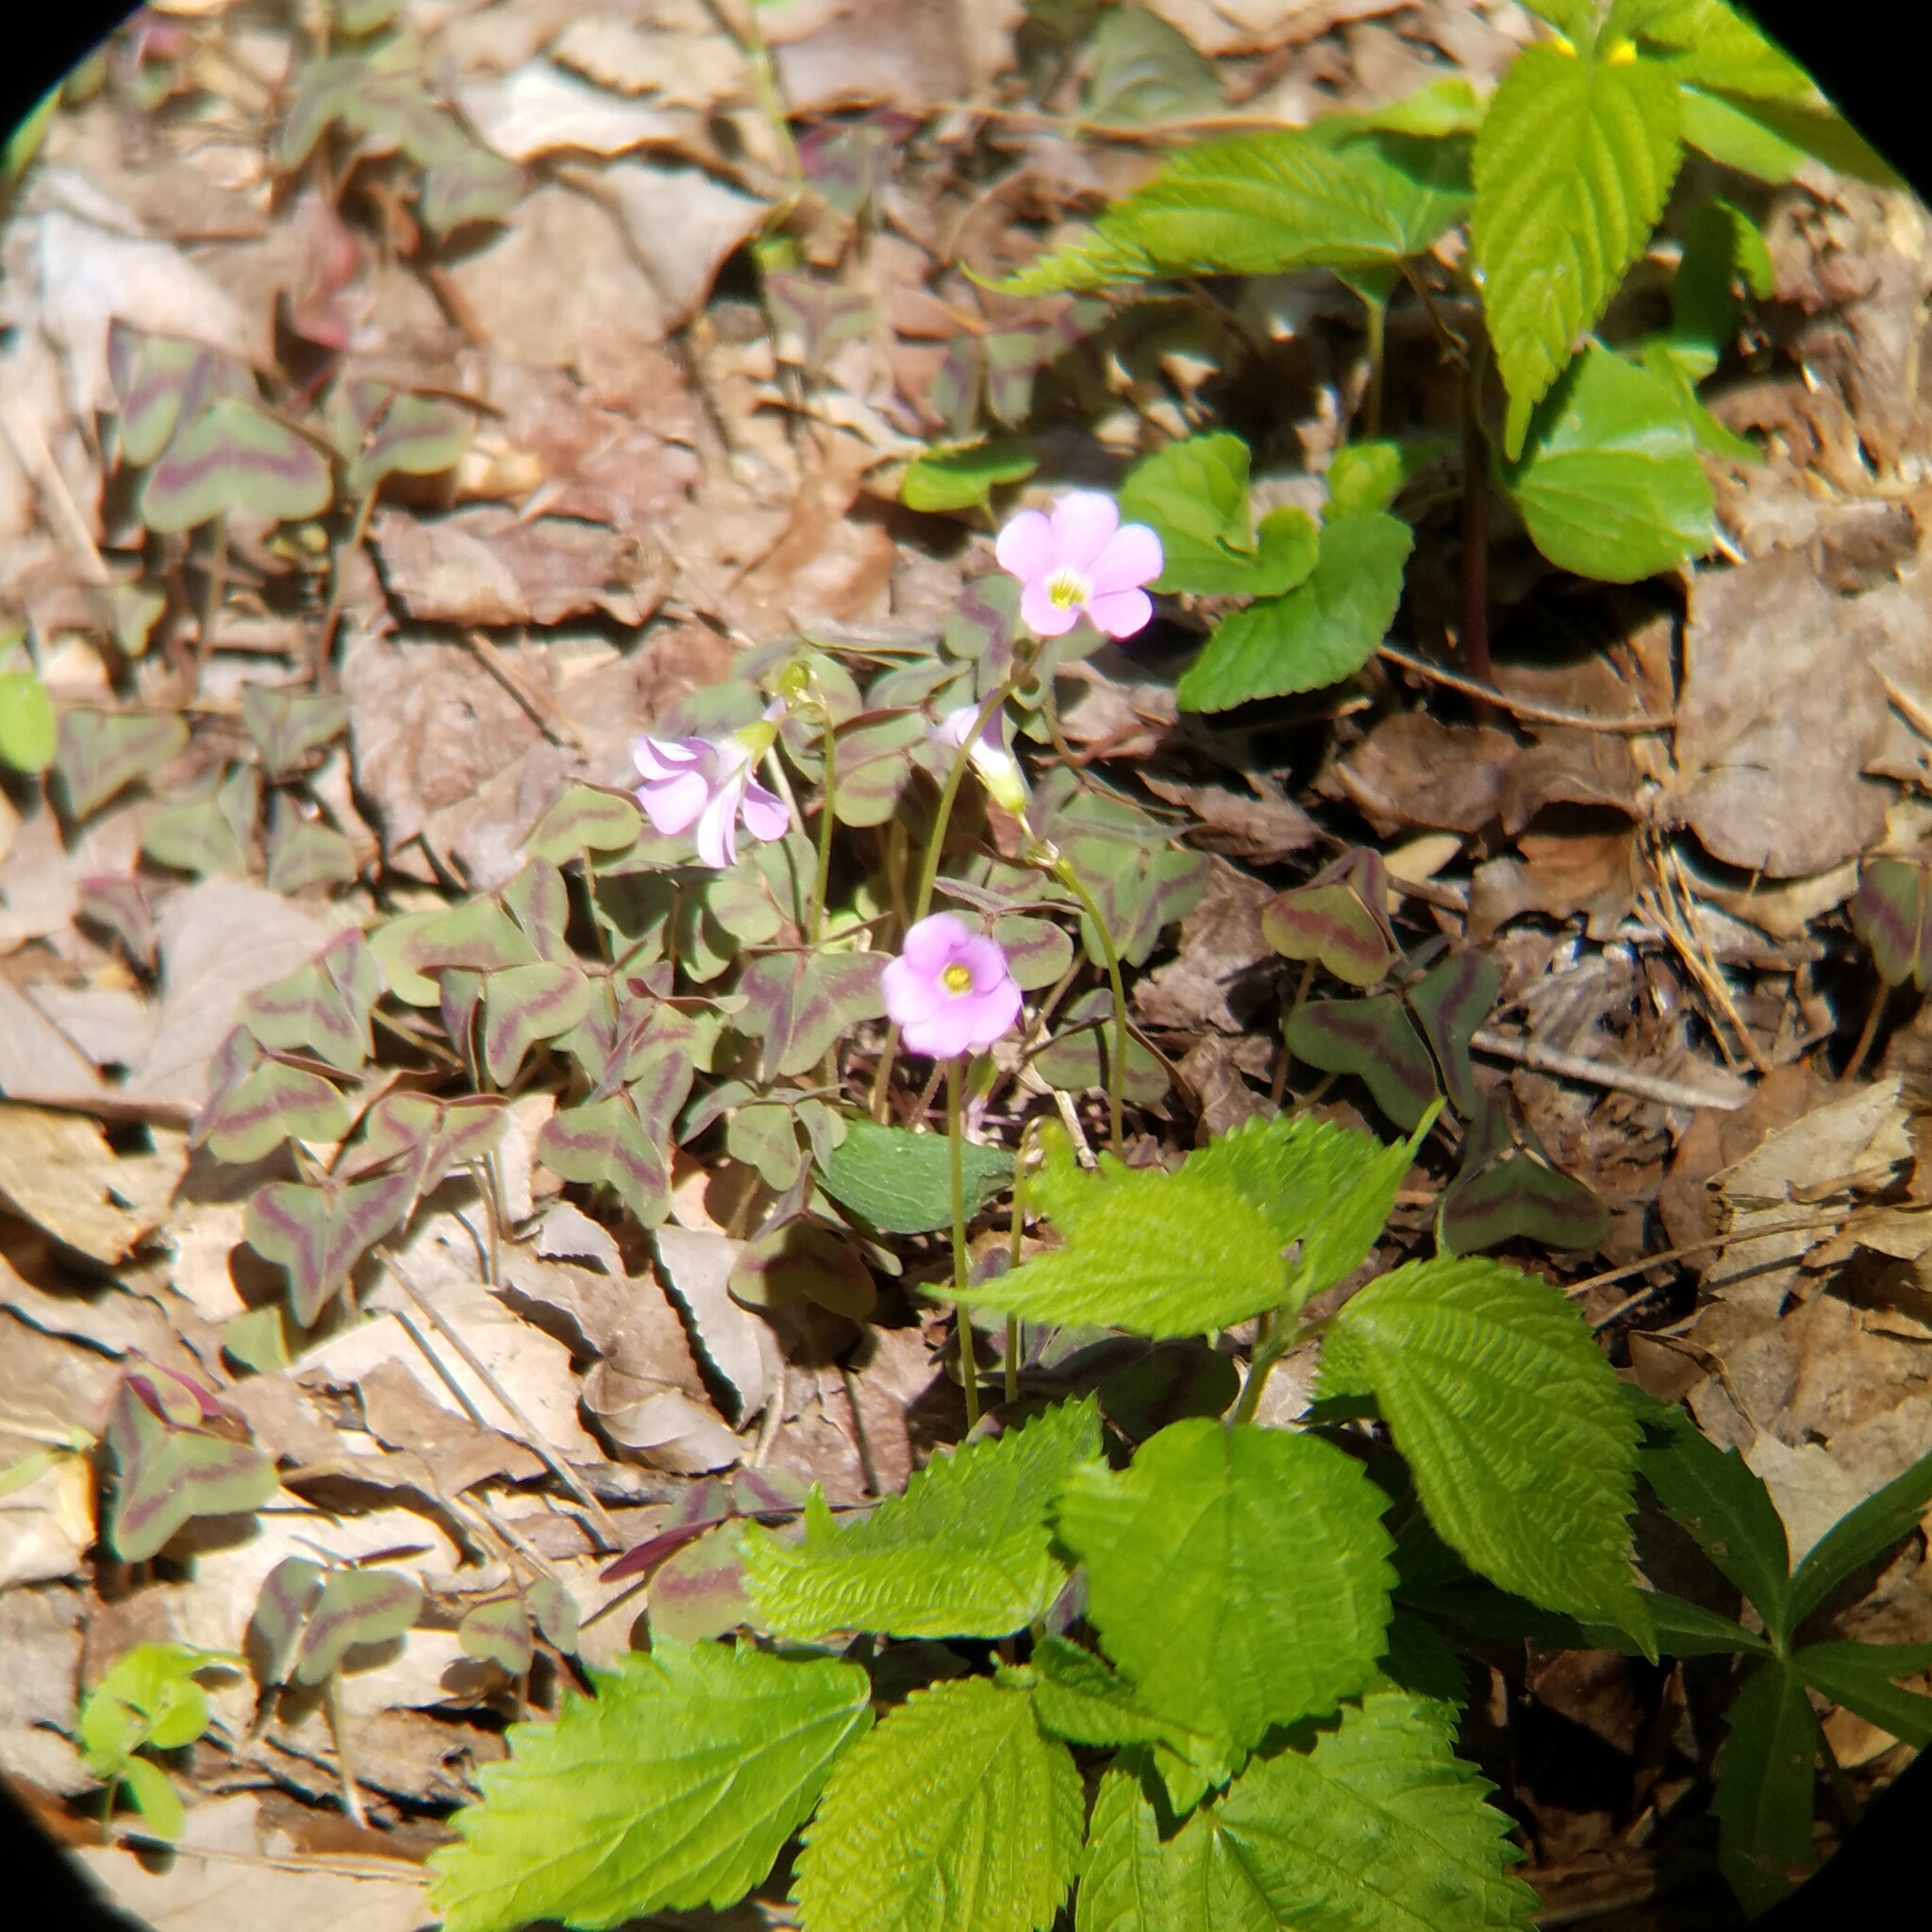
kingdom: Plantae
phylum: Tracheophyta
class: Magnoliopsida
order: Oxalidales
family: Oxalidaceae
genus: Oxalis
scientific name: Oxalis violacea
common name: Violet wood-sorrel
